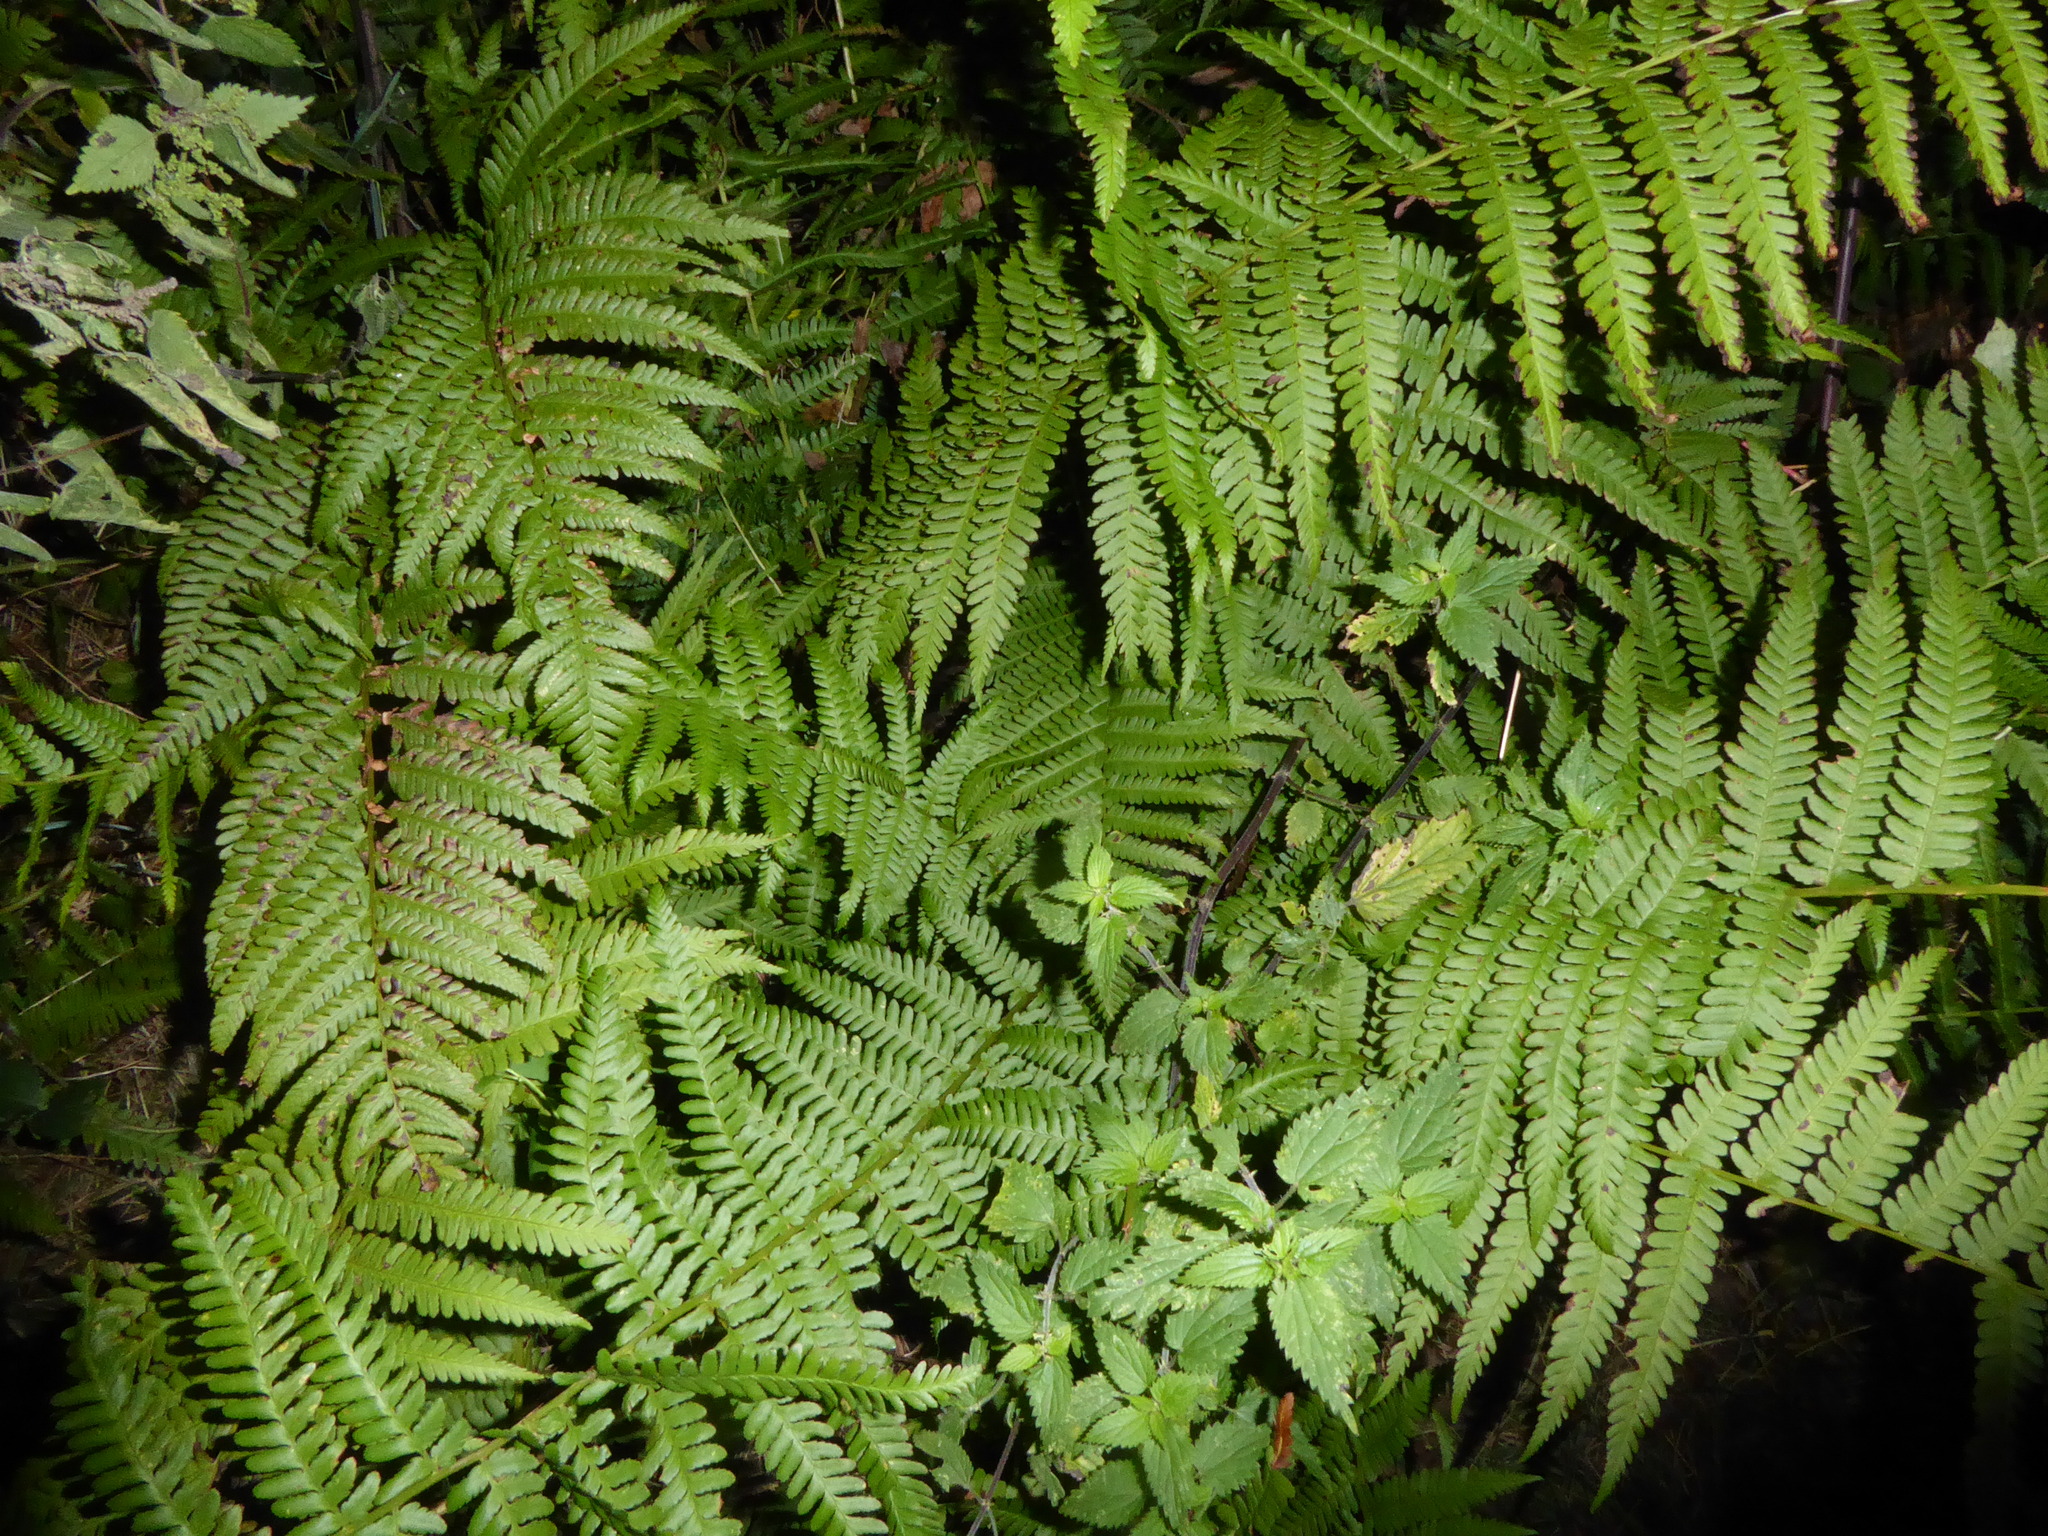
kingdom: Plantae
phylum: Tracheophyta
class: Polypodiopsida
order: Polypodiales
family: Dryopteridaceae
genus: Dryopteris
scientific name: Dryopteris filix-mas
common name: Male fern
